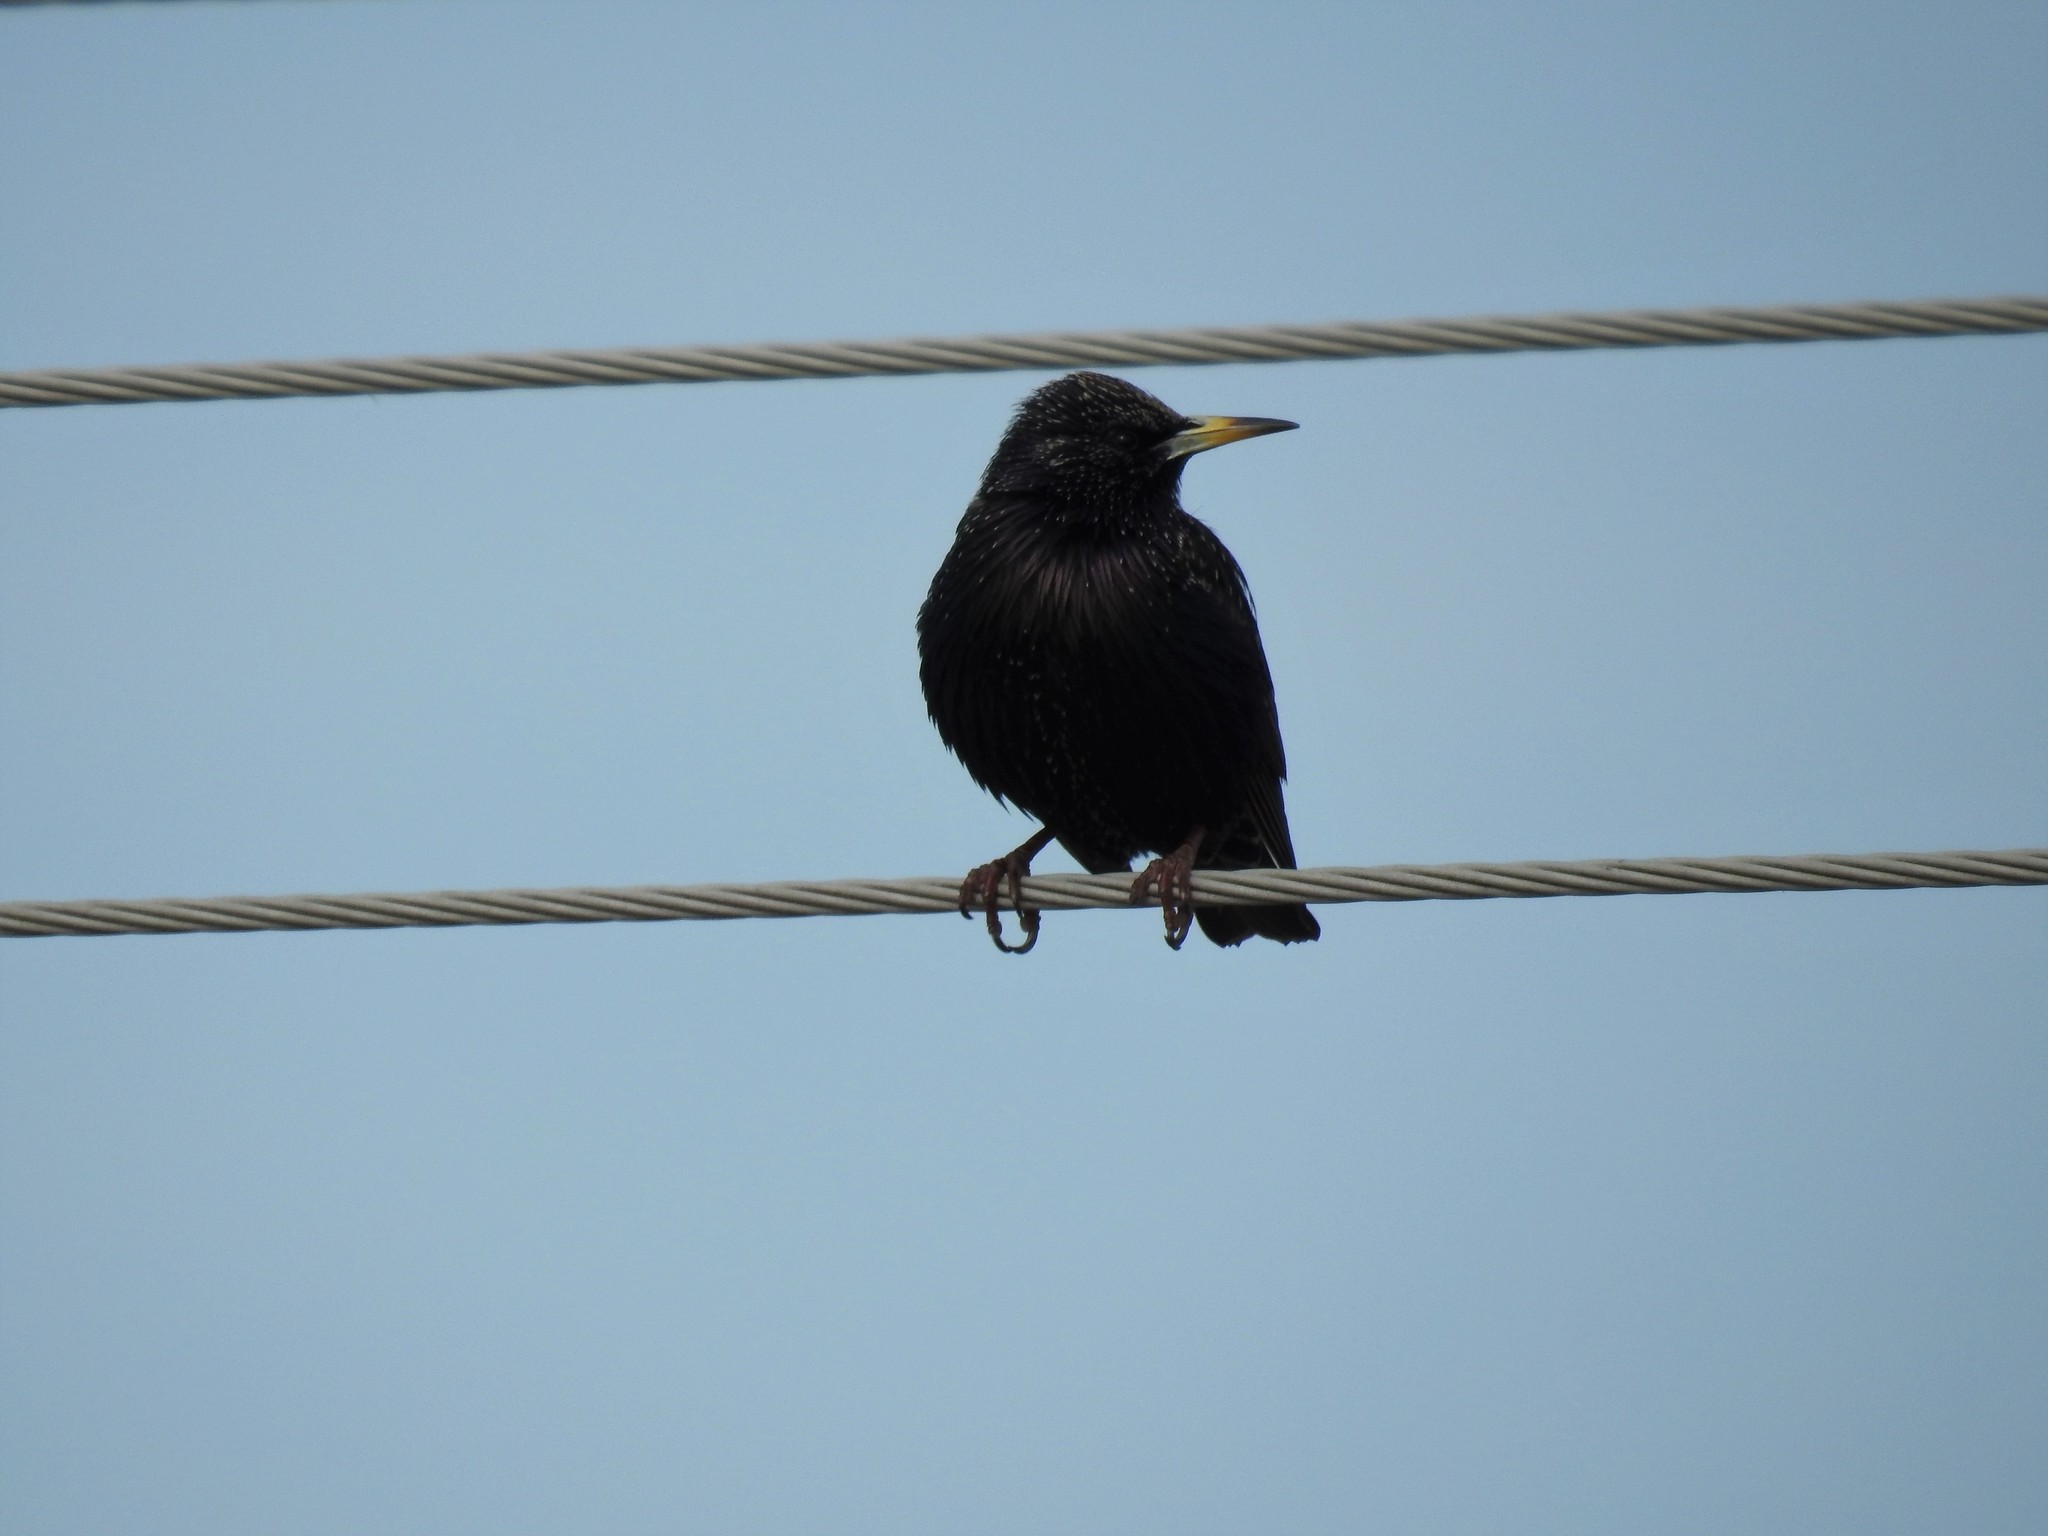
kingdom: Animalia
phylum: Chordata
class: Aves
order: Passeriformes
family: Sturnidae
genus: Sturnus
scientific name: Sturnus vulgaris
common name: Common starling
